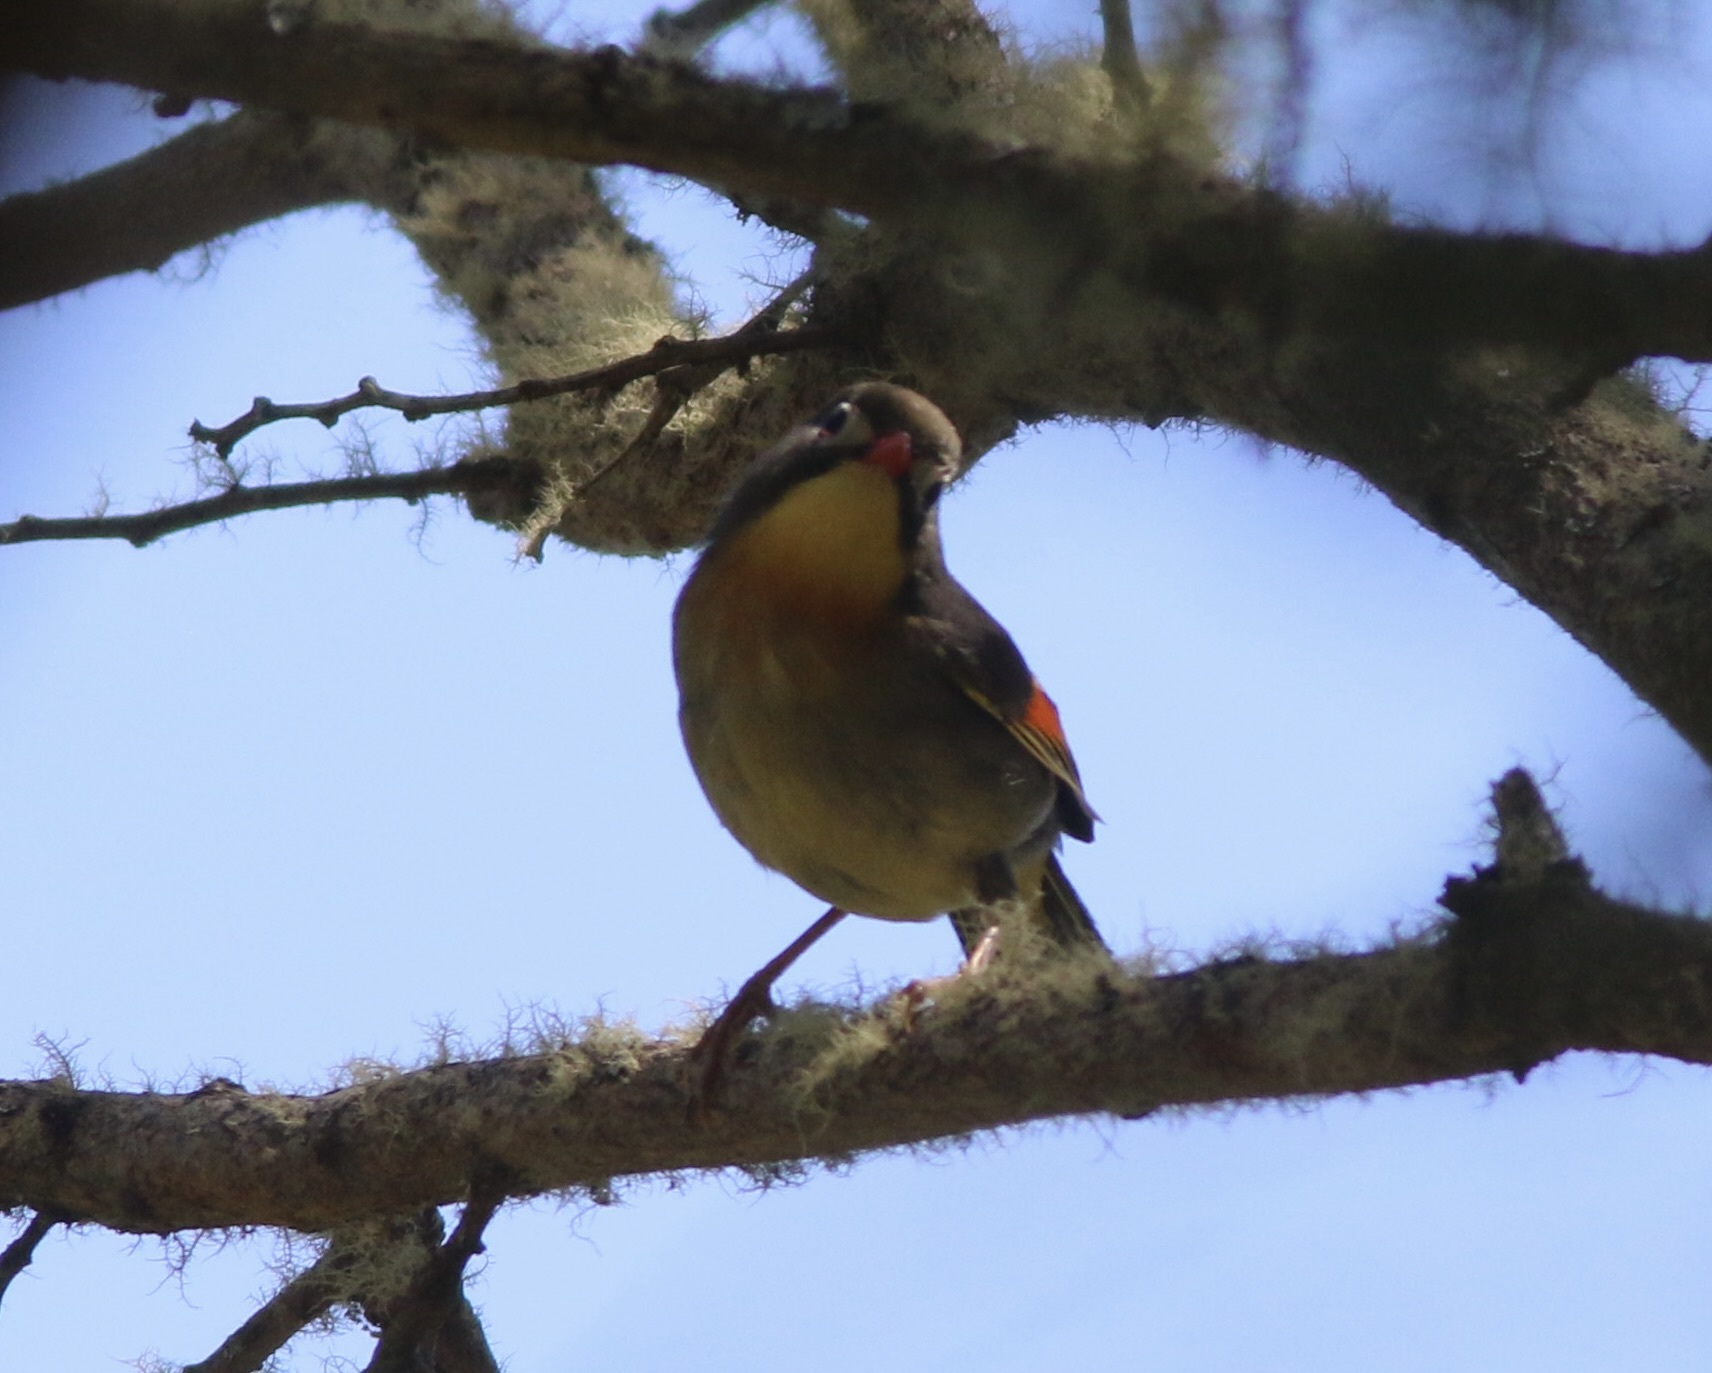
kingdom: Animalia
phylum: Chordata
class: Aves
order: Passeriformes
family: Leiothrichidae
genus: Leiothrix
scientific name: Leiothrix lutea
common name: Red-billed leiothrix
